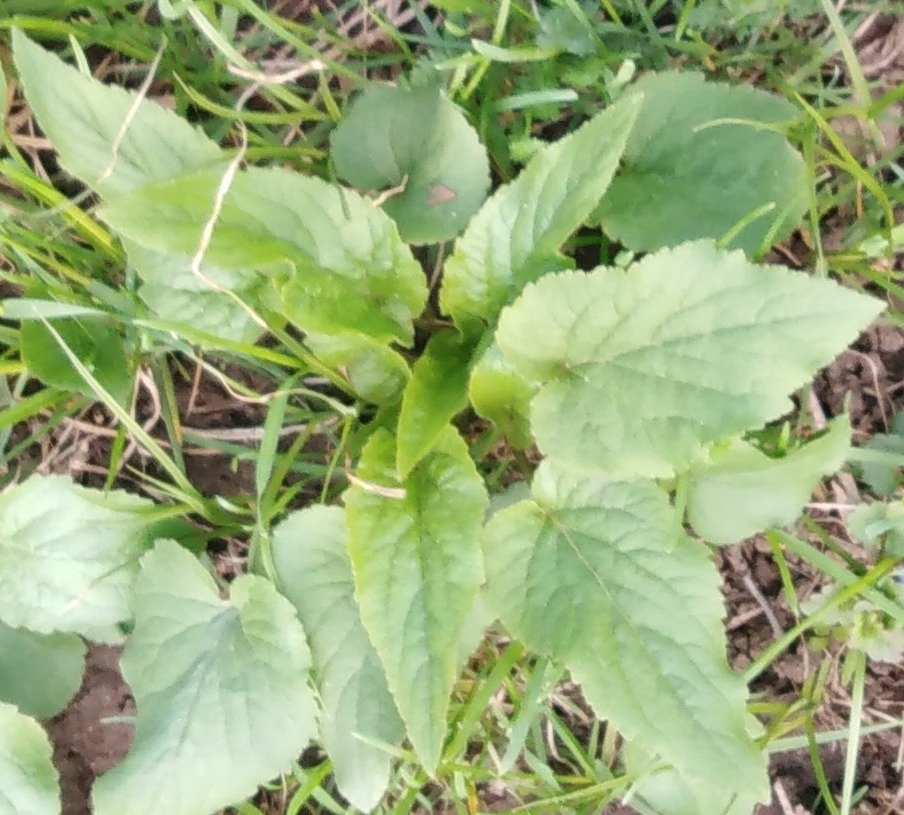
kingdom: Plantae
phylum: Tracheophyta
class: Magnoliopsida
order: Asterales
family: Campanulaceae
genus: Campanula
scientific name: Campanula rapunculoides
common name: Creeping bellflower
